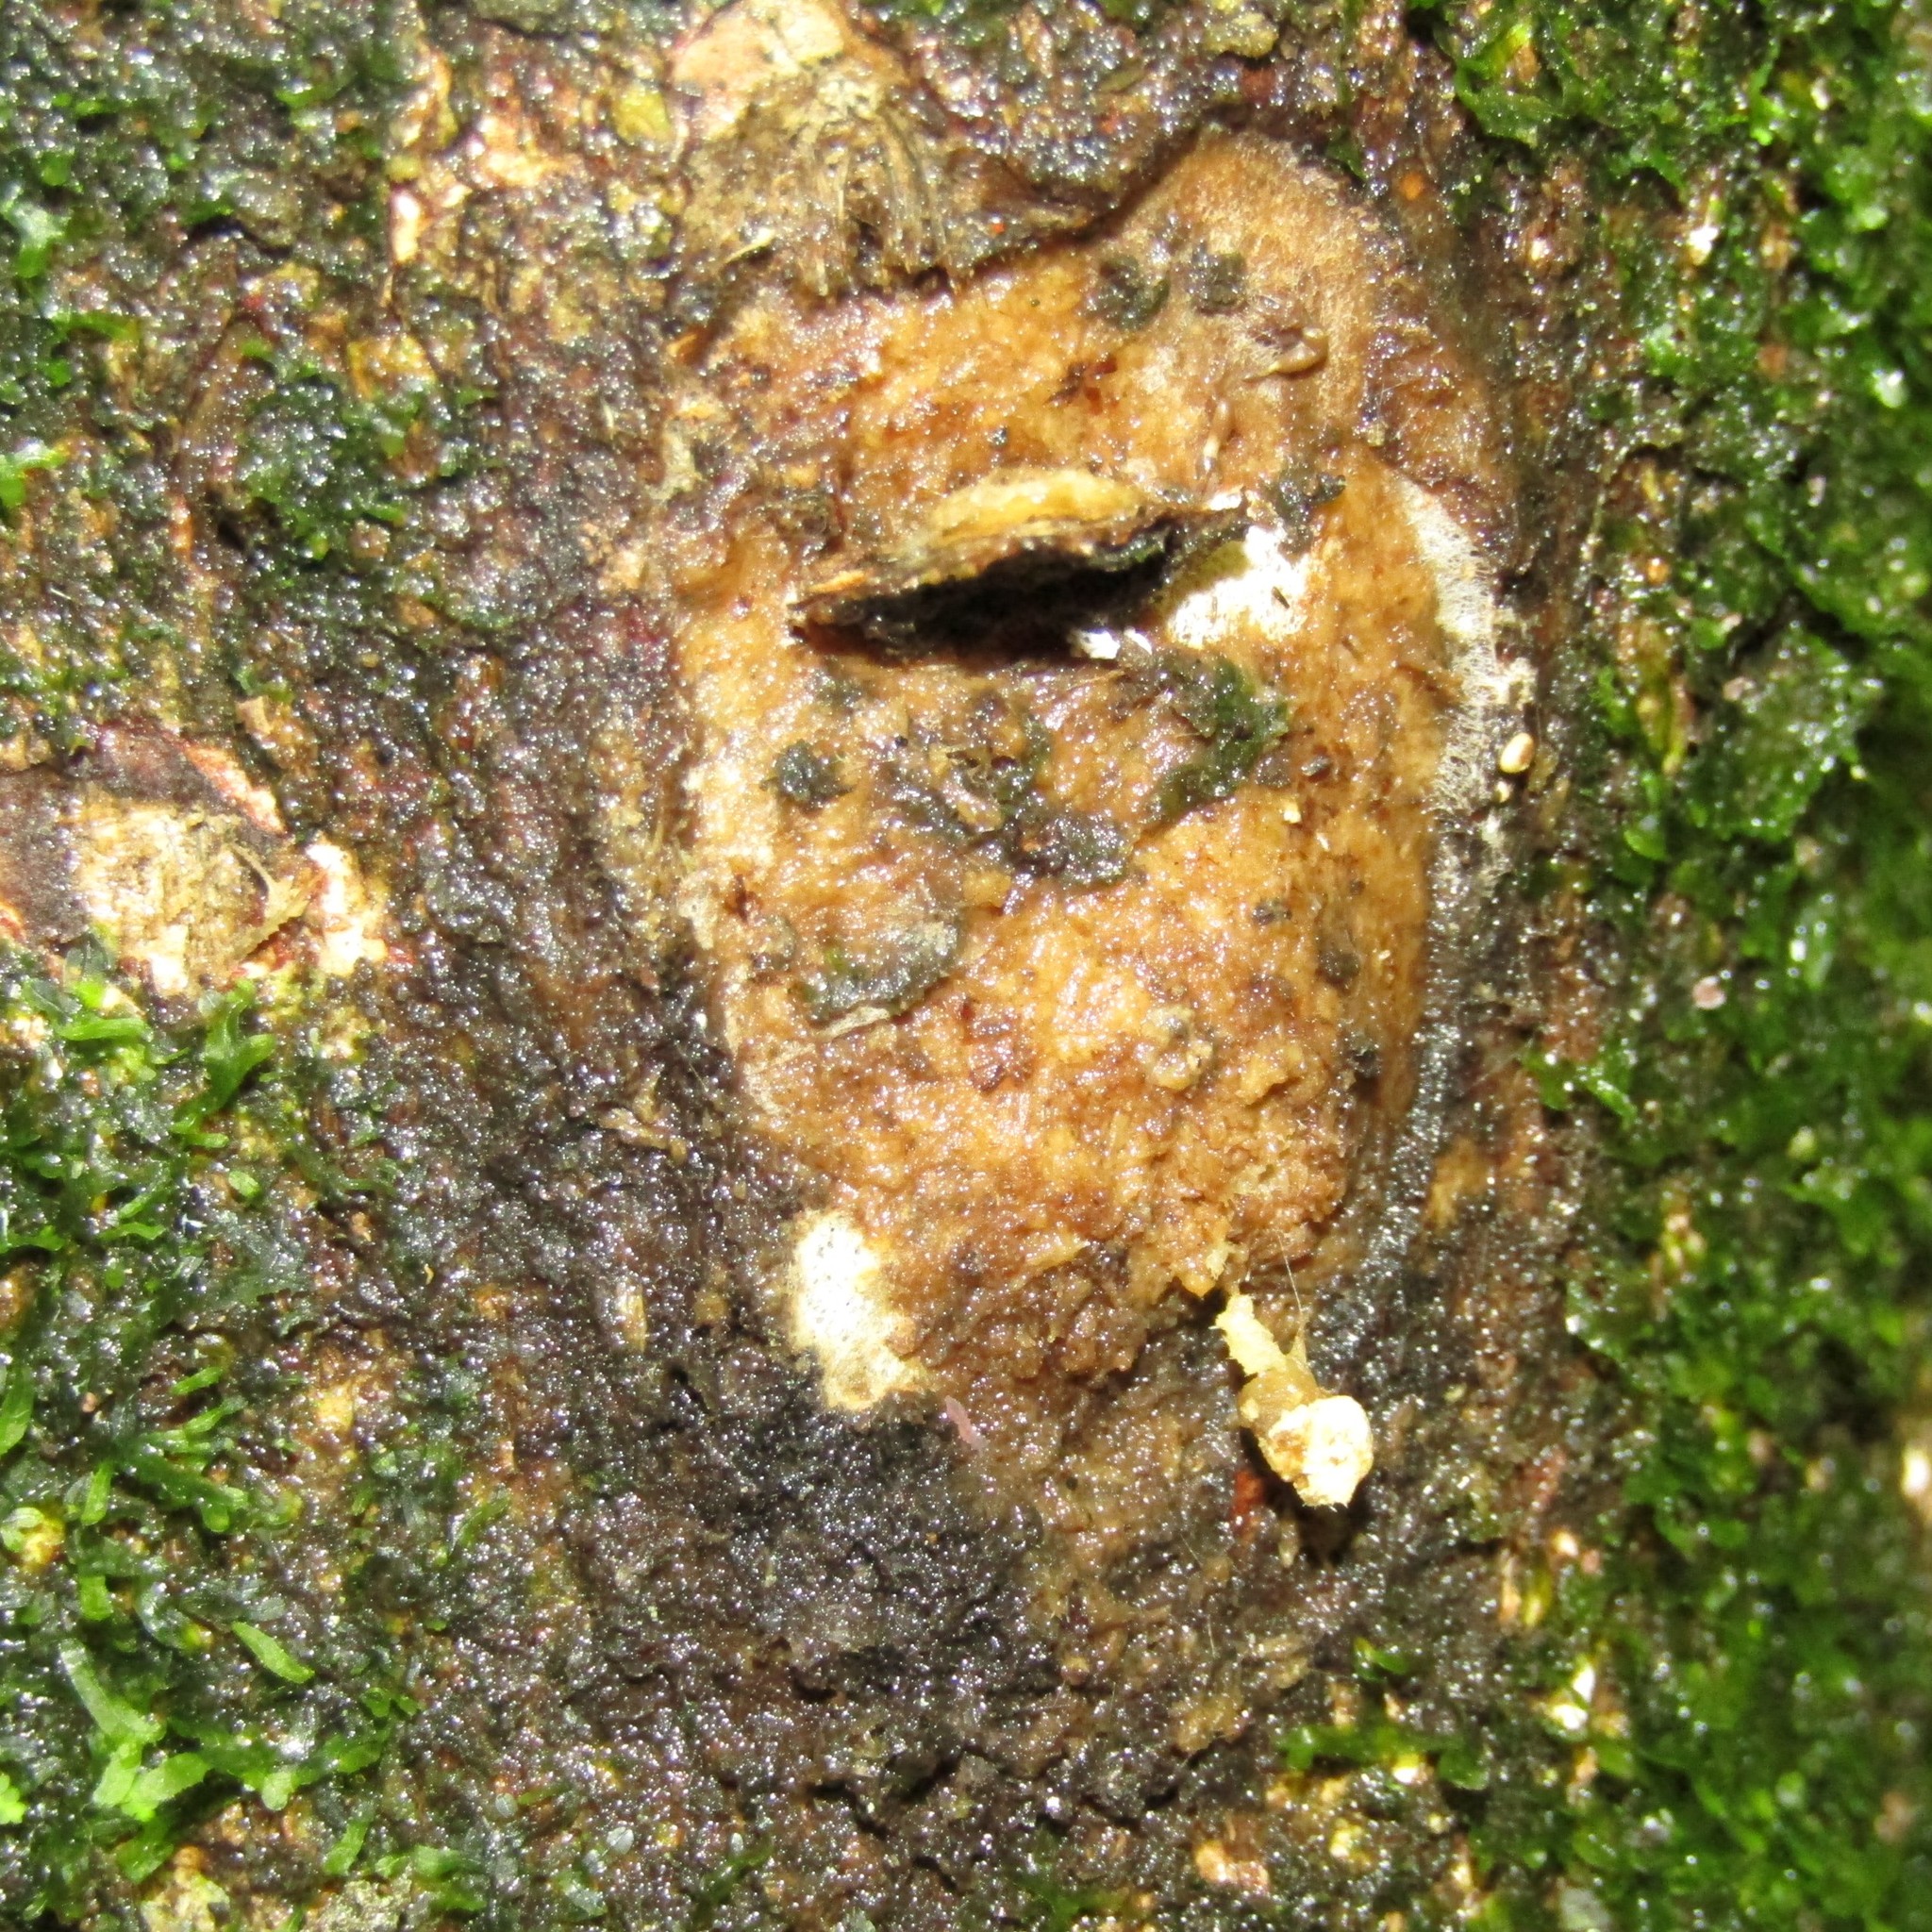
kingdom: Animalia
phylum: Arthropoda
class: Insecta
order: Lepidoptera
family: Hepialidae
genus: Aenetus
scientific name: Aenetus virescens
